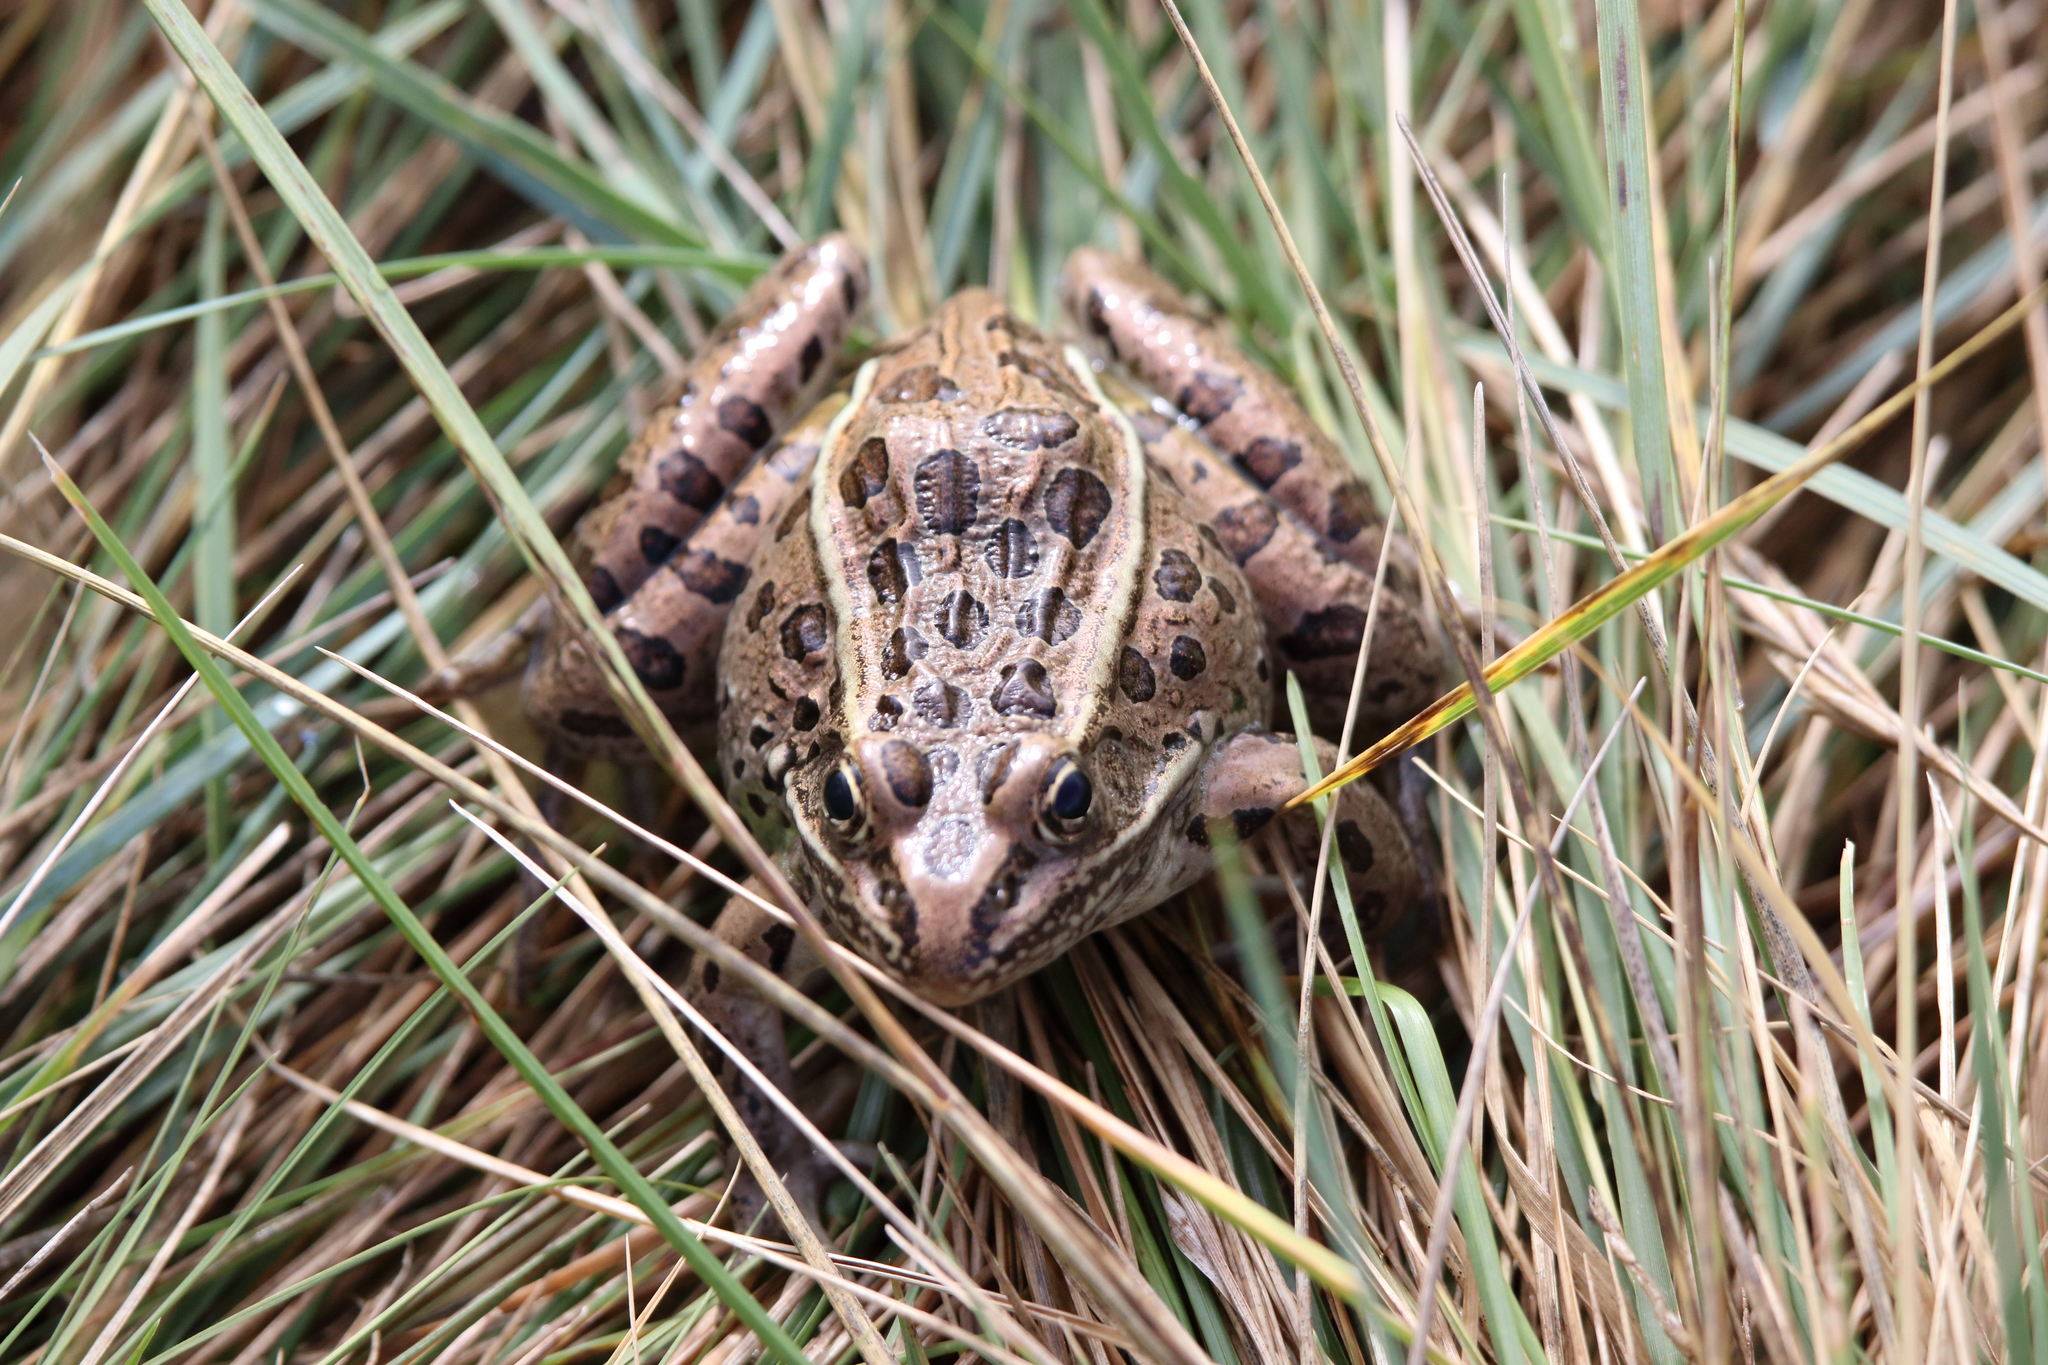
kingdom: Animalia
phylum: Chordata
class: Amphibia
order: Anura
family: Ranidae
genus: Lithobates
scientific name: Lithobates pipiens
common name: Northern leopard frog
